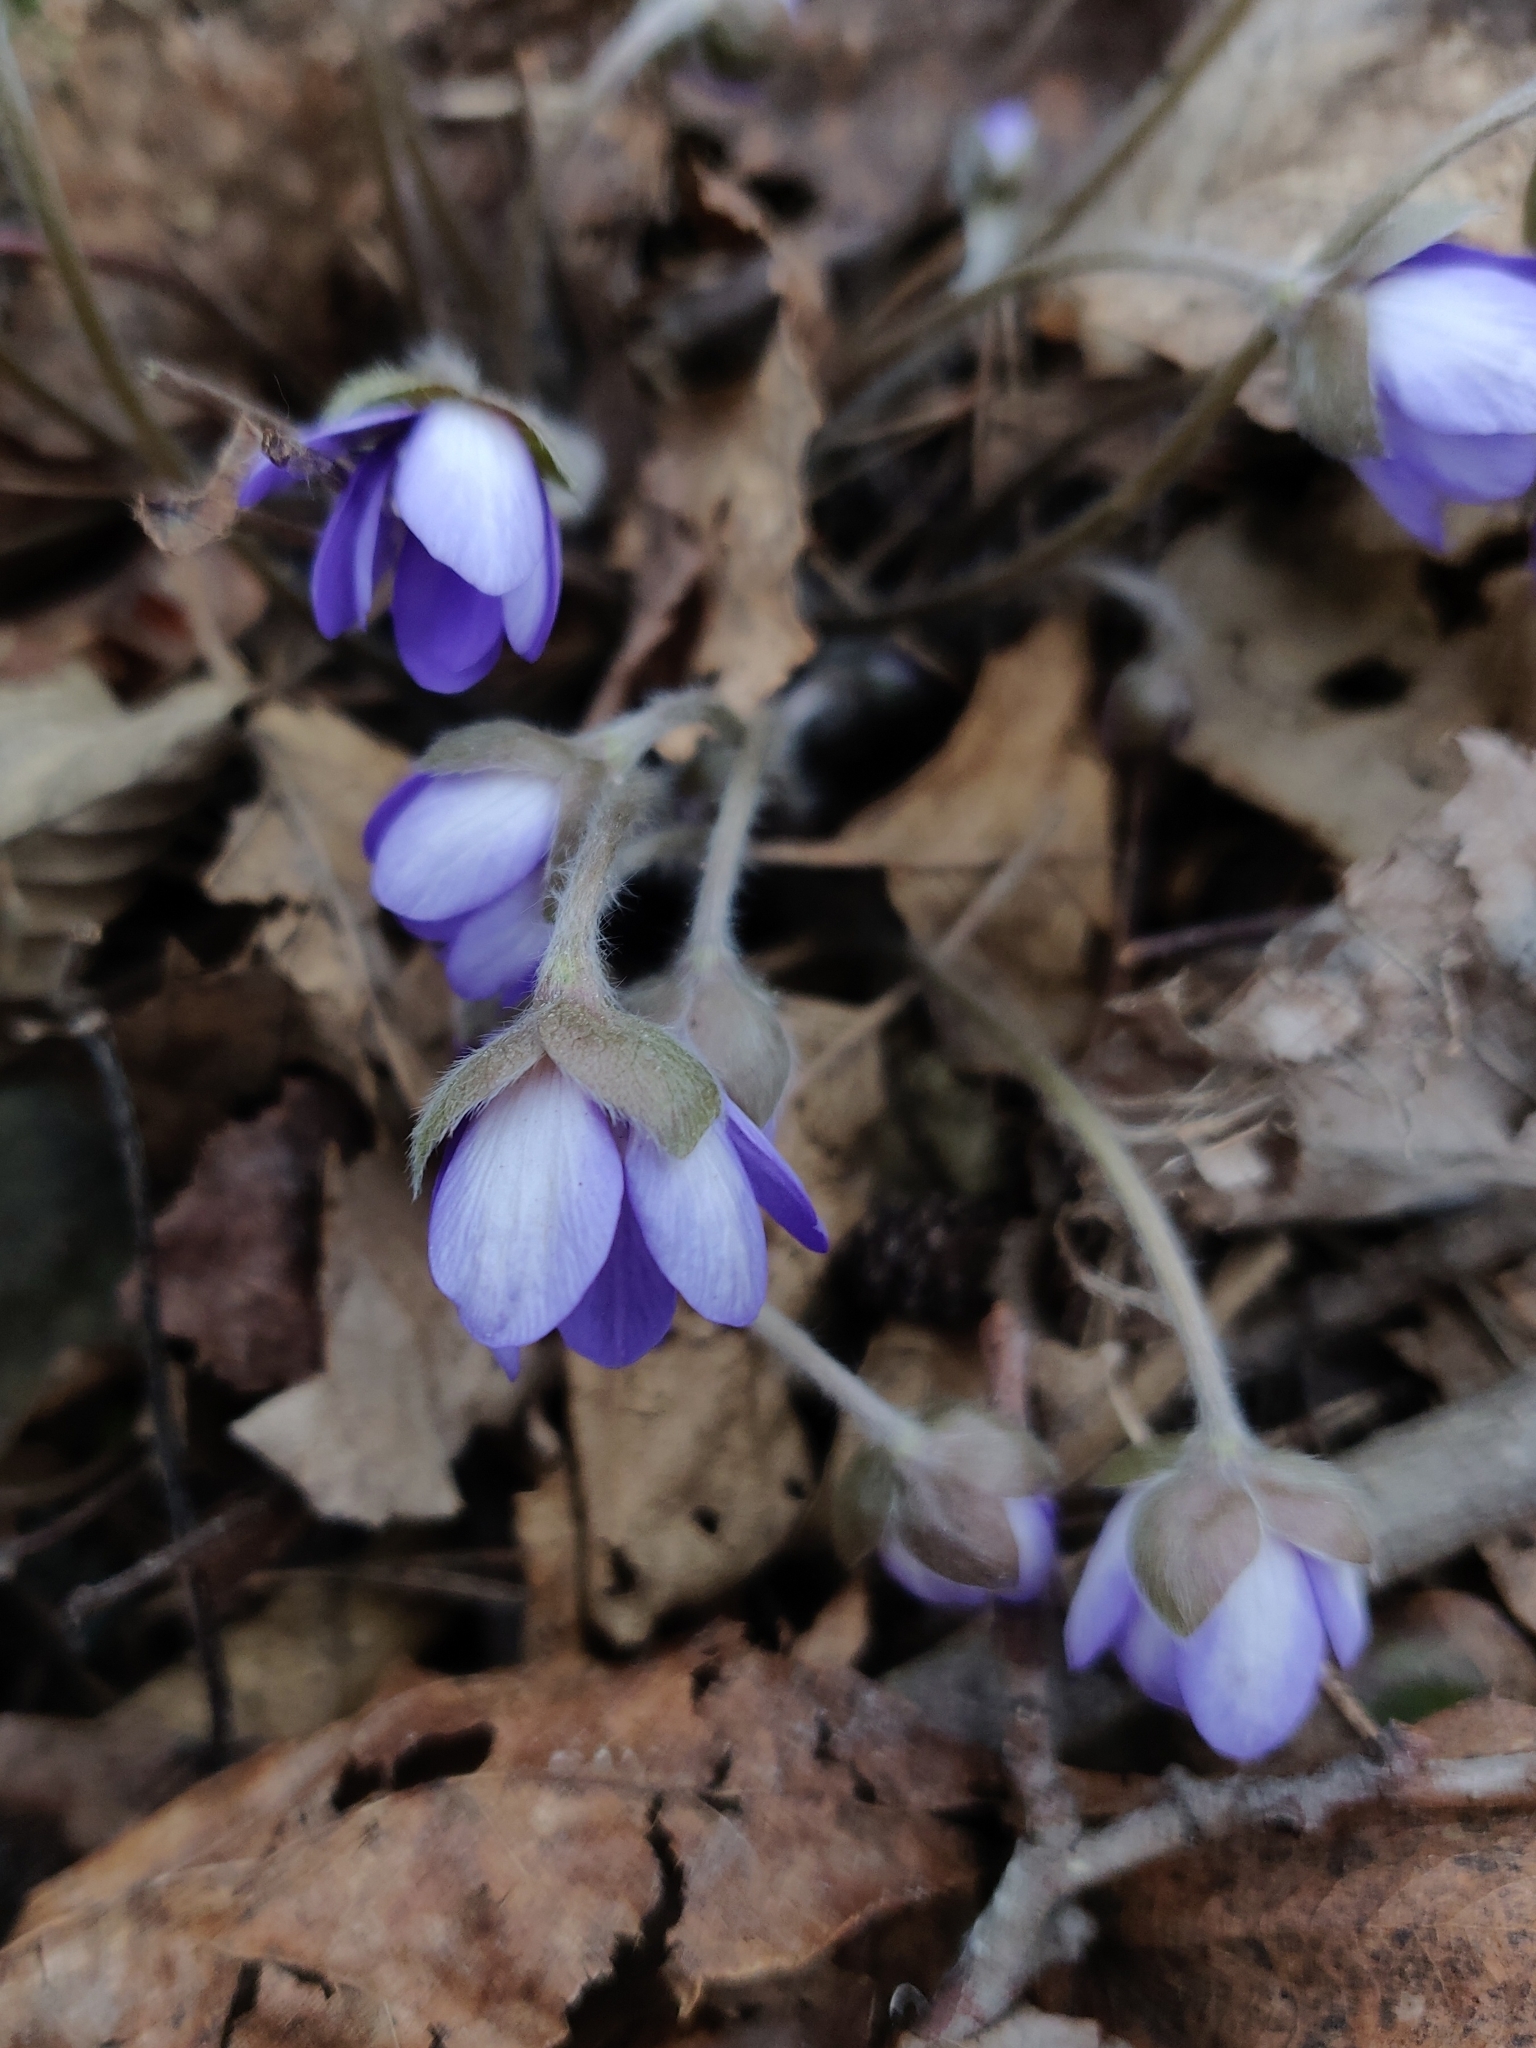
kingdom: Plantae
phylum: Tracheophyta
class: Magnoliopsida
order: Ranunculales
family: Ranunculaceae
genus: Hepatica
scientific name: Hepatica nobilis
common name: Liverleaf
